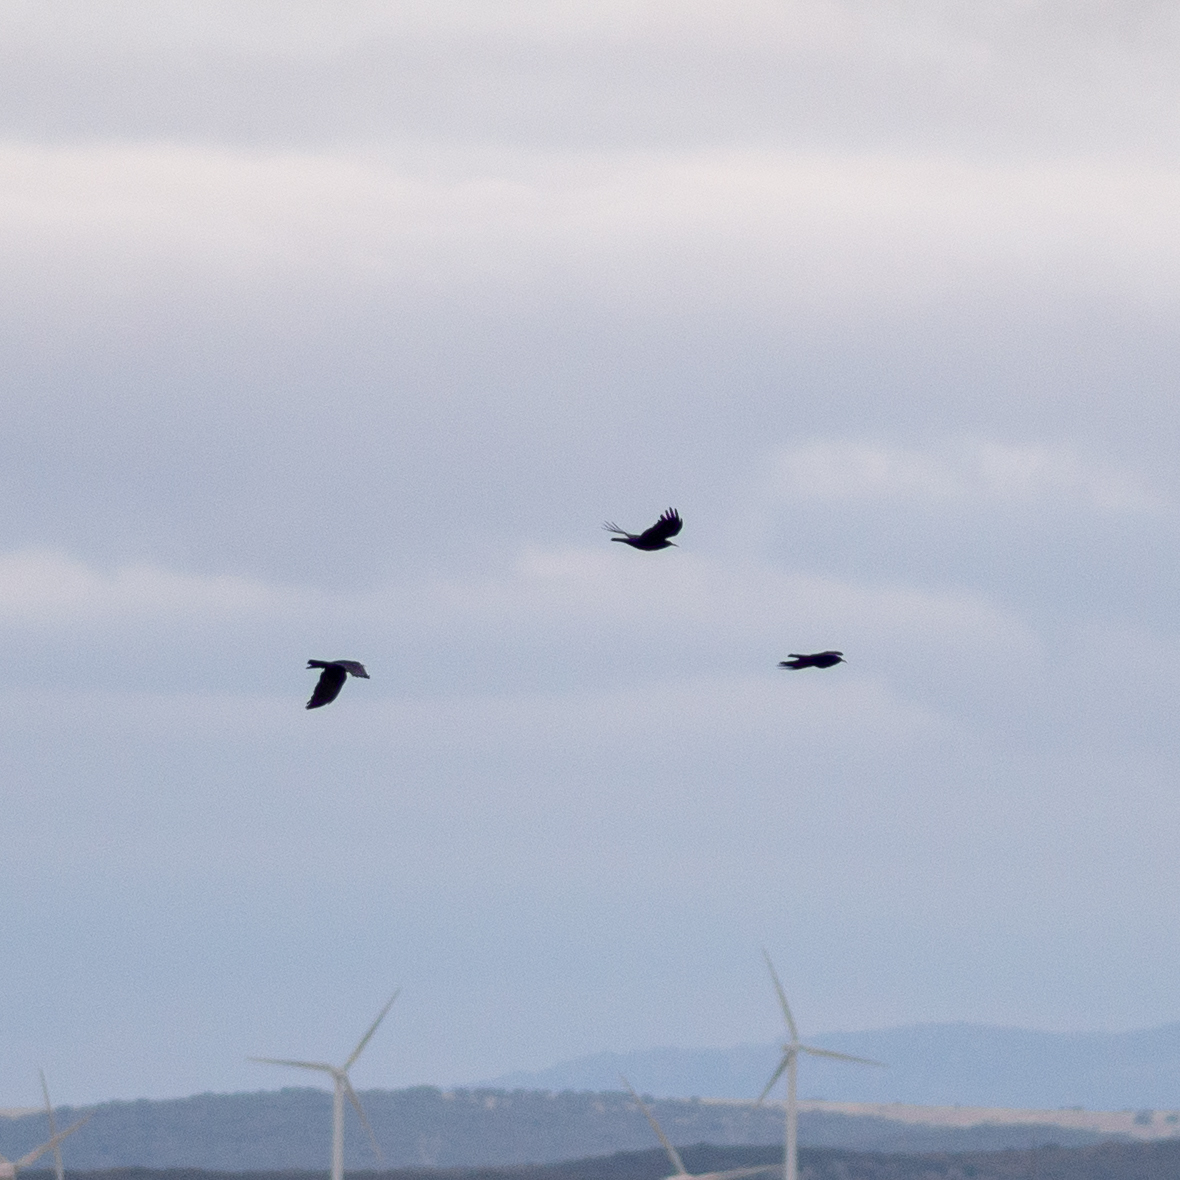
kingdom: Animalia
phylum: Chordata
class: Aves
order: Passeriformes
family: Corvidae
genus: Pyrrhocorax
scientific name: Pyrrhocorax pyrrhocorax
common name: Red-billed chough
